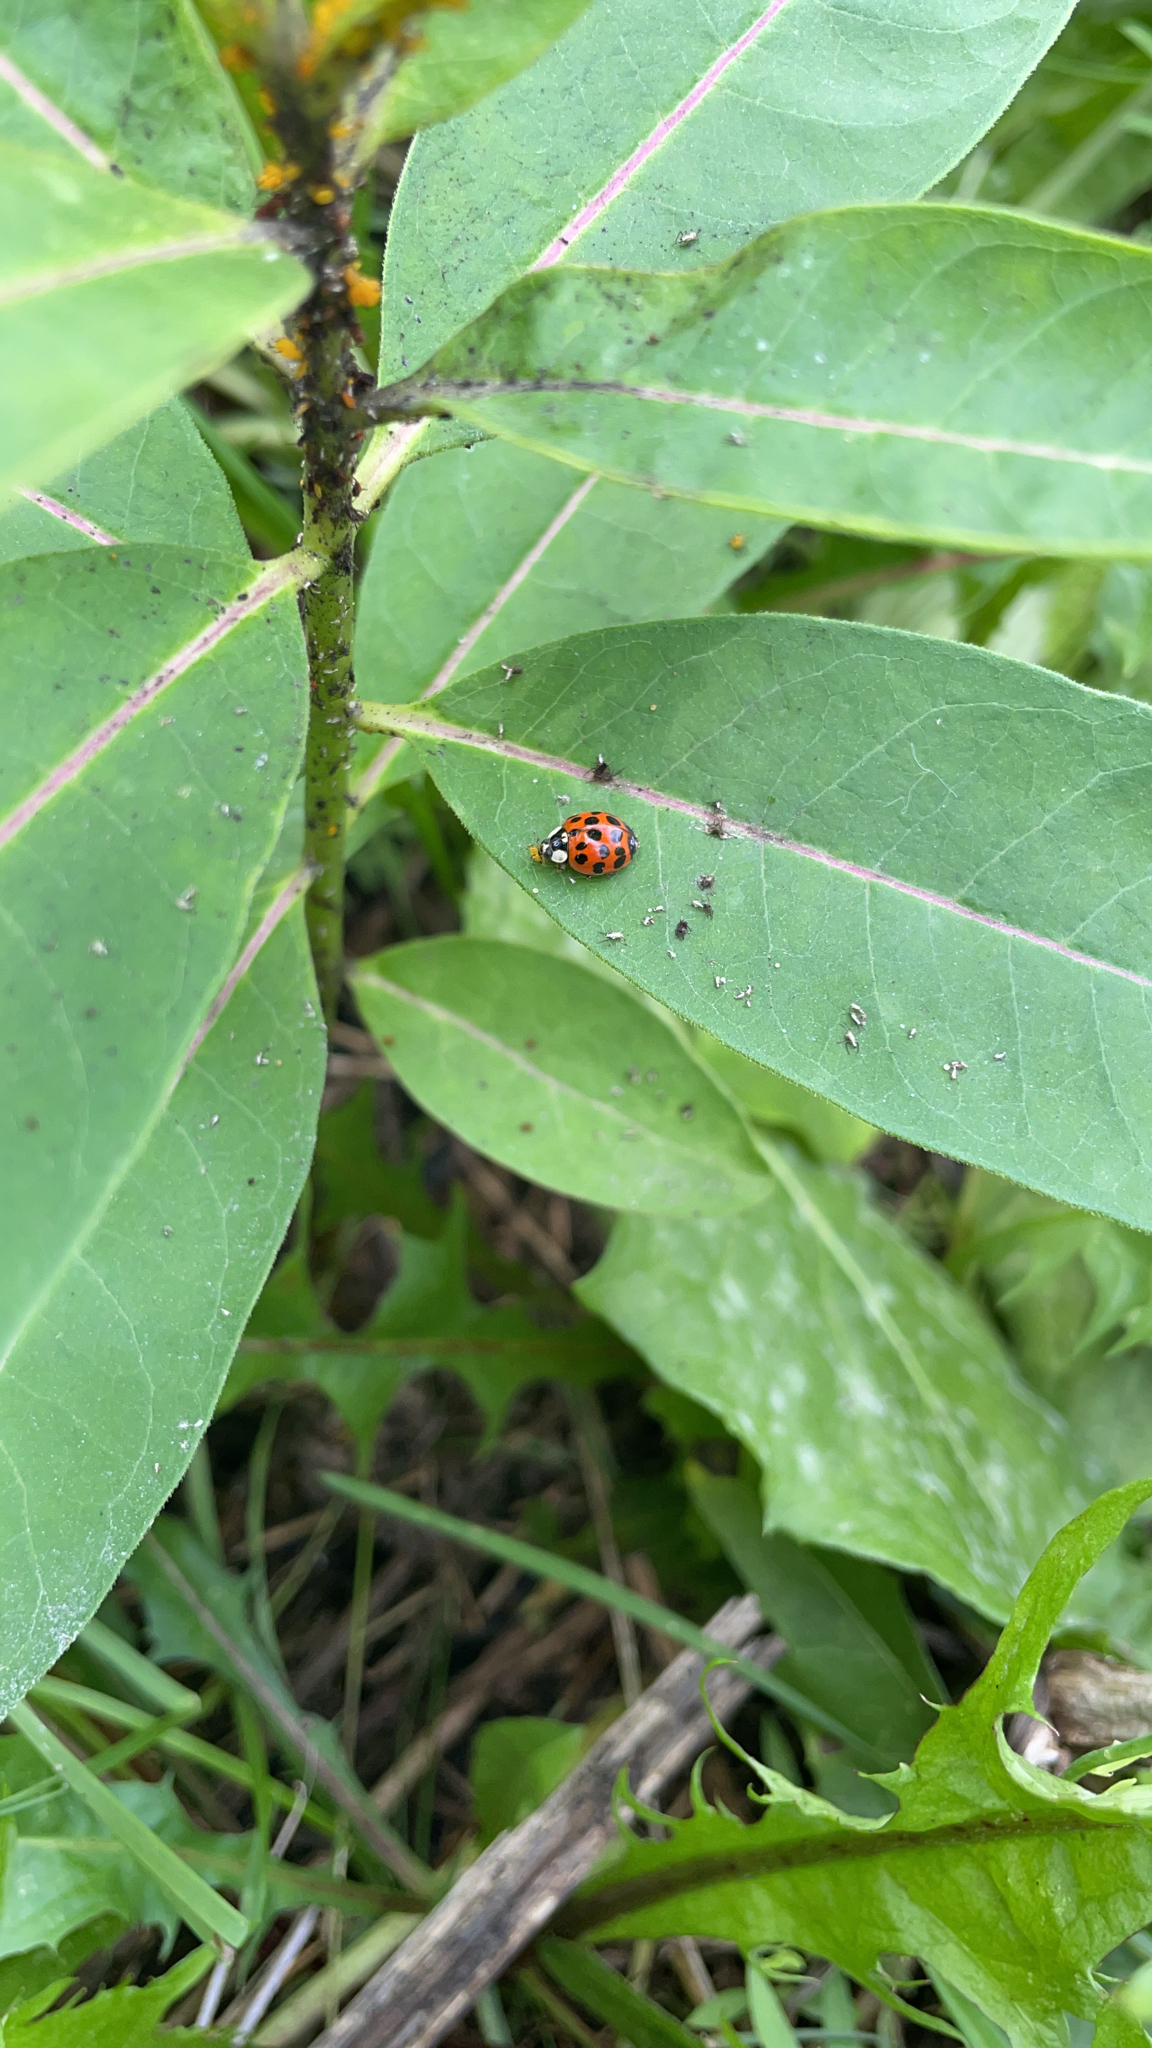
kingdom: Animalia
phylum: Arthropoda
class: Insecta
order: Coleoptera
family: Coccinellidae
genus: Harmonia
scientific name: Harmonia axyridis
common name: Harlequin ladybird
